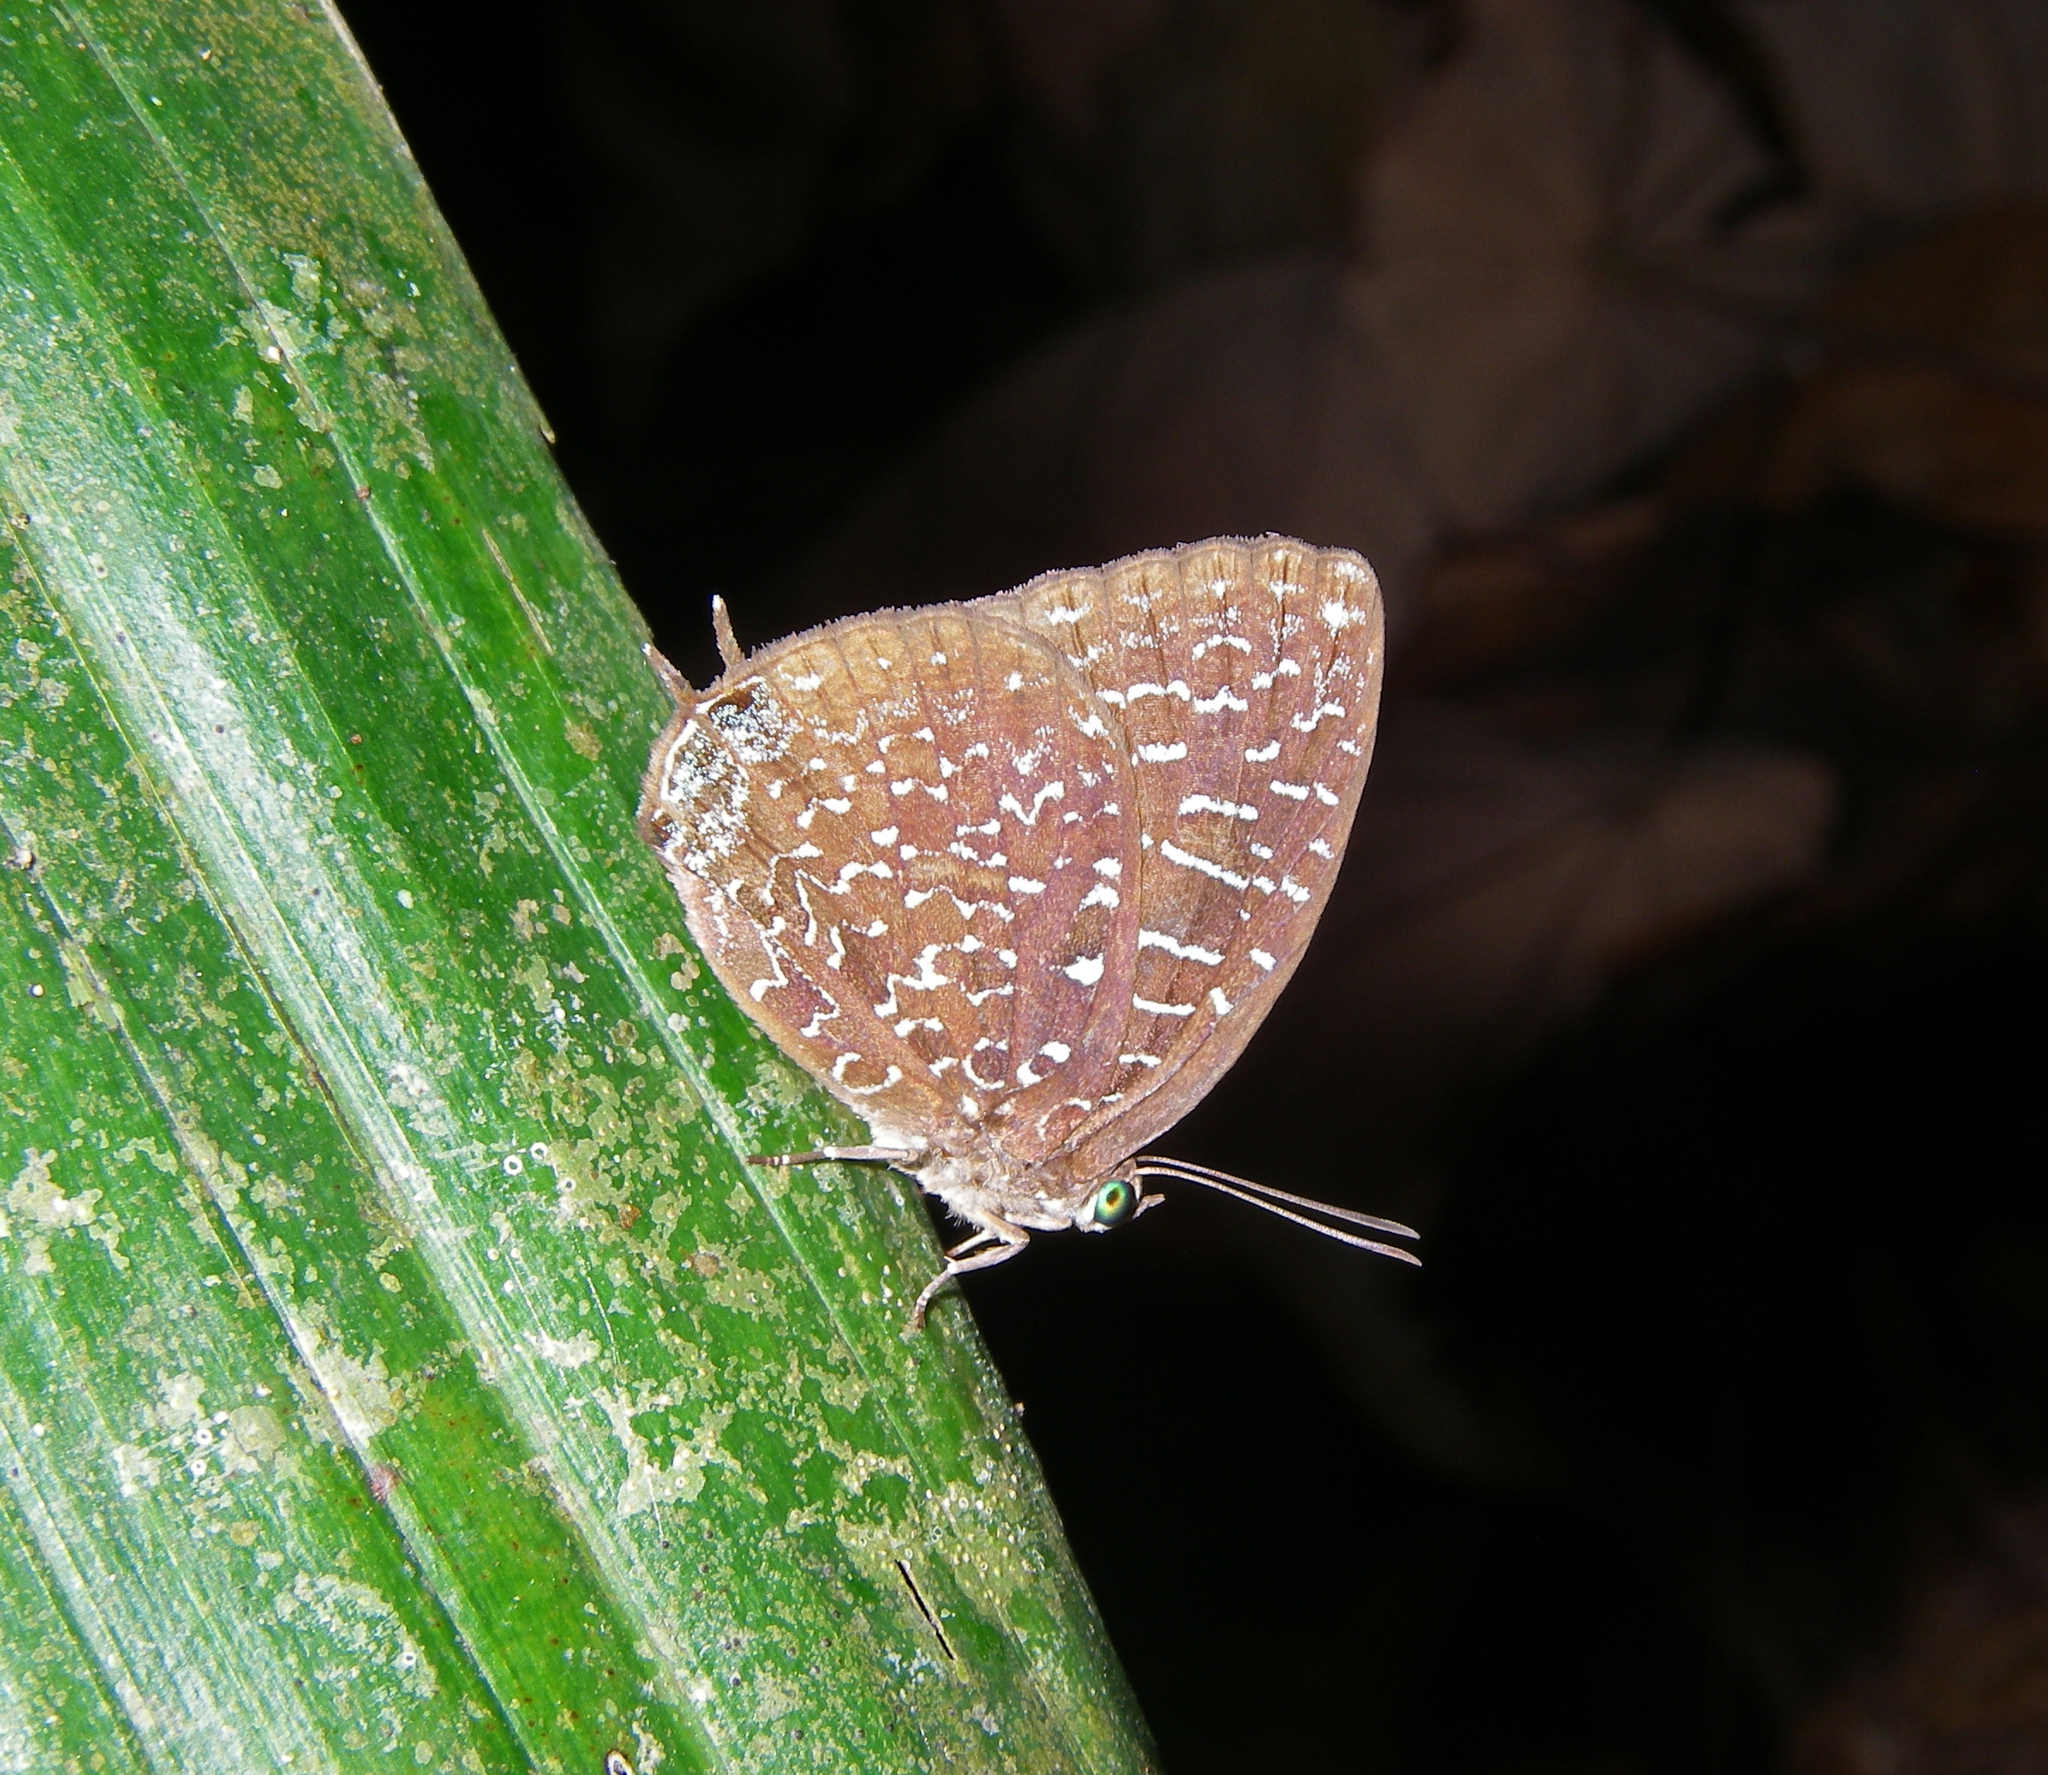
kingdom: Animalia
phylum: Arthropoda
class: Insecta
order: Lepidoptera
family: Lycaenidae
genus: Arhopala
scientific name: Arhopala democritus
